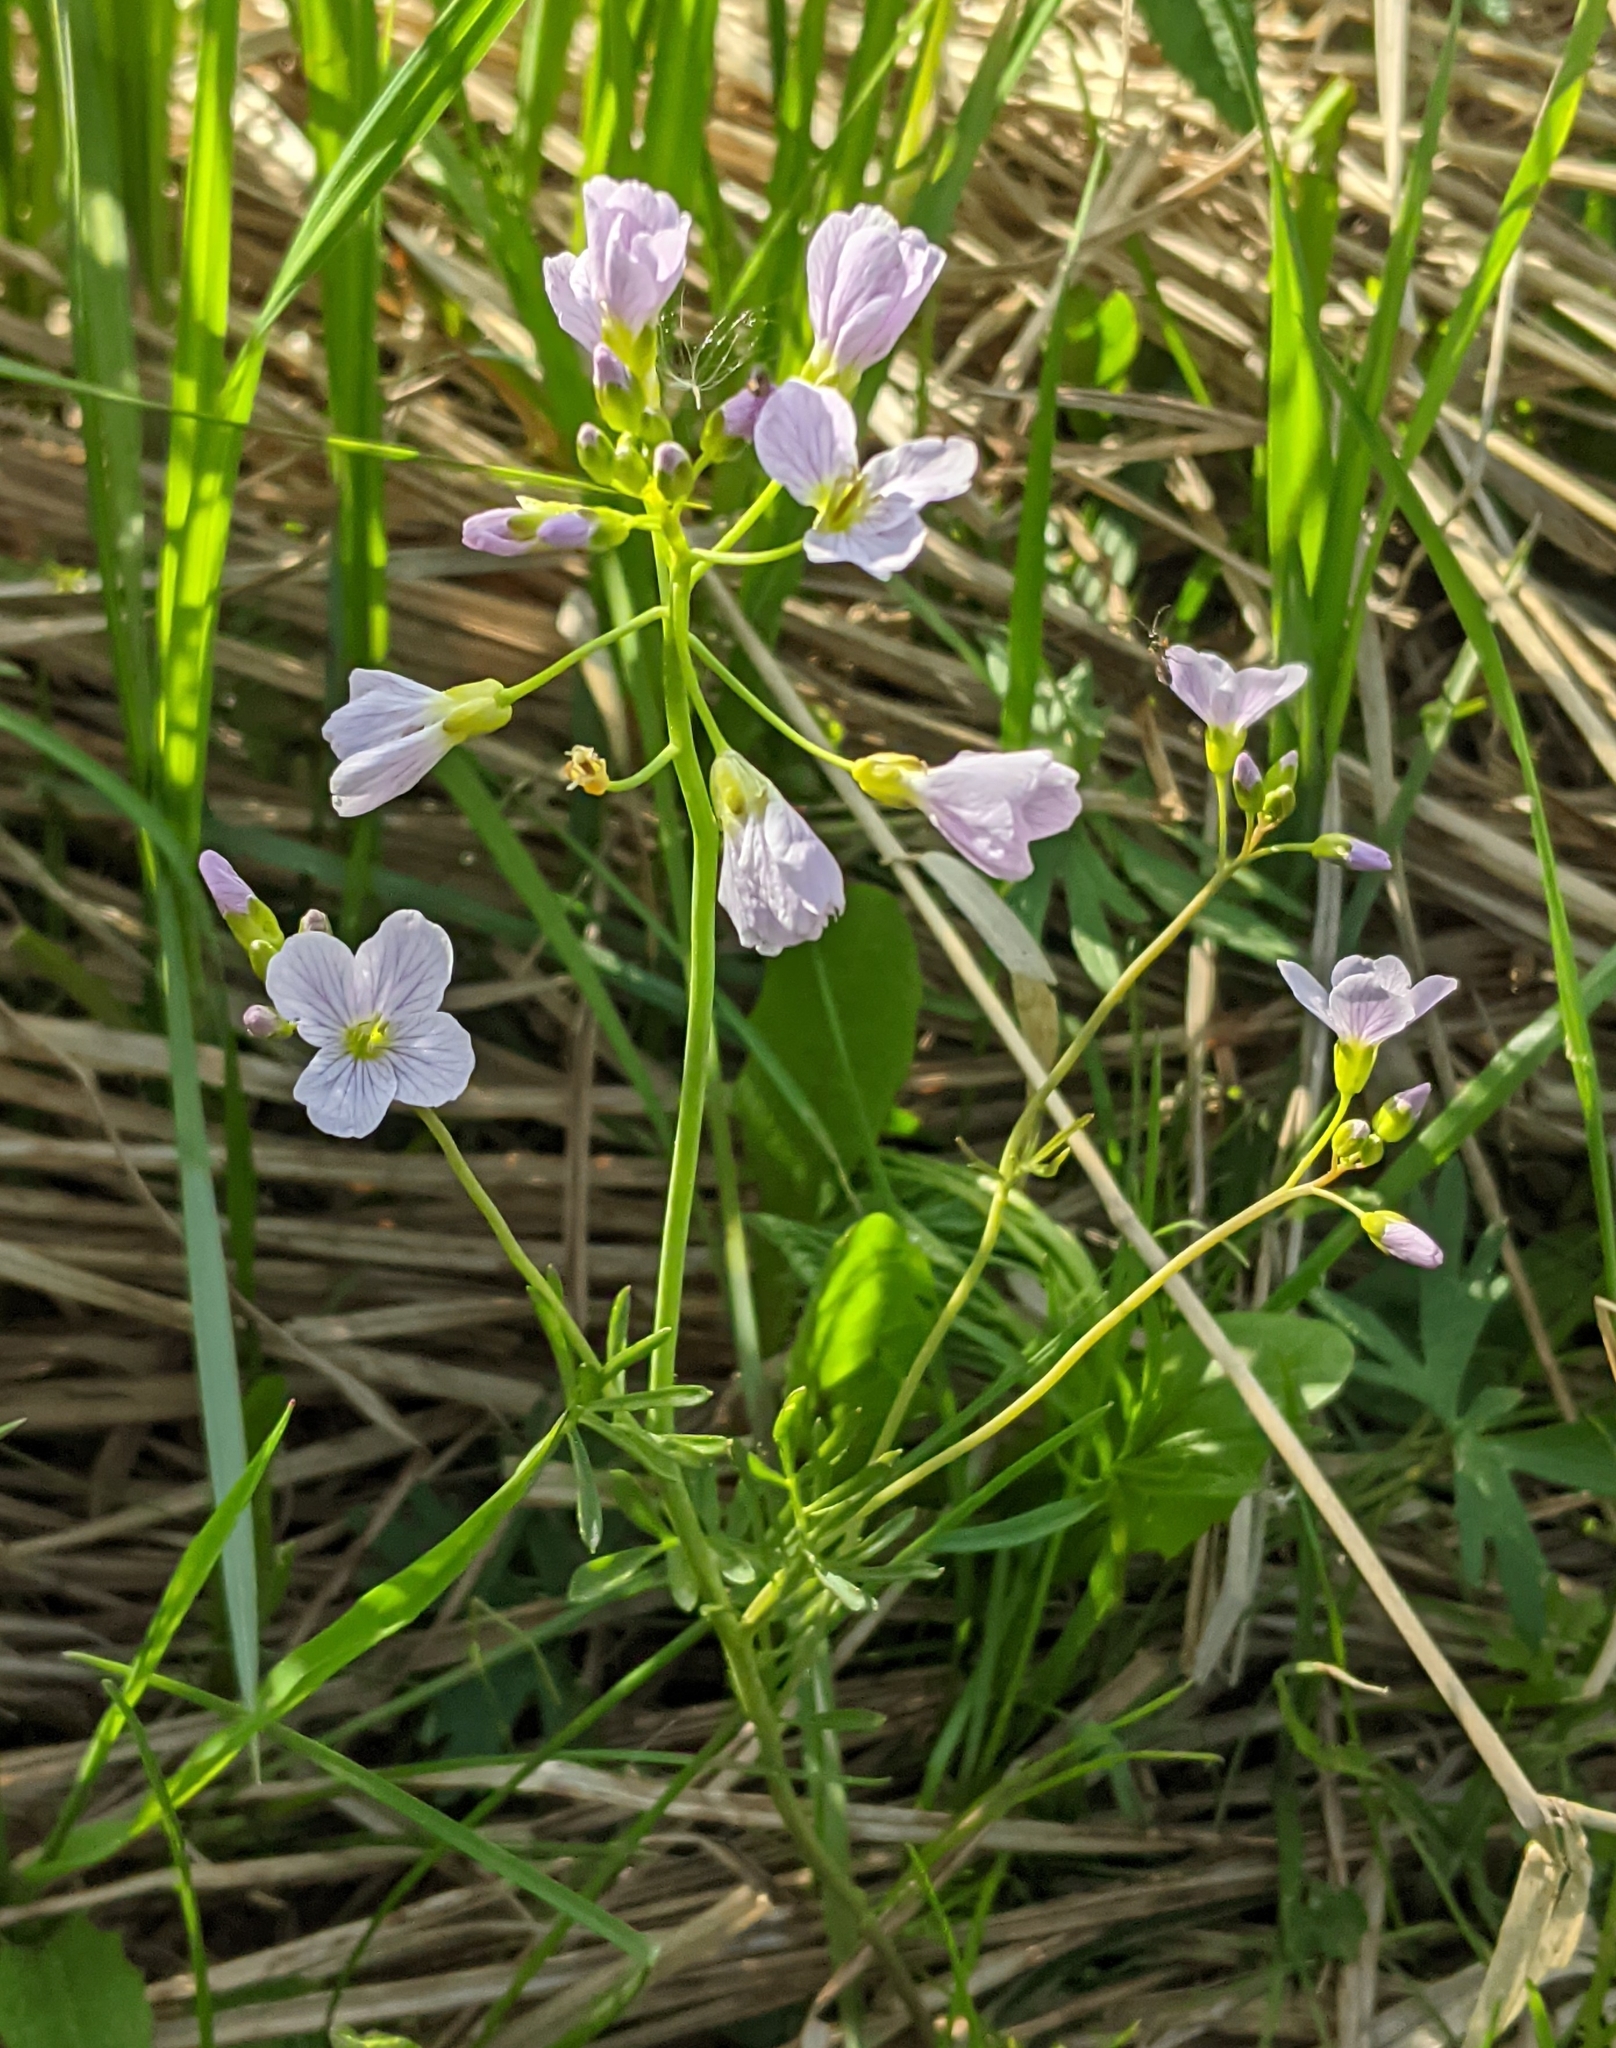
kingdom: Plantae
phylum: Tracheophyta
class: Magnoliopsida
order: Brassicales
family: Brassicaceae
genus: Cardamine
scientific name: Cardamine dentata
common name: Toothed bittercress
